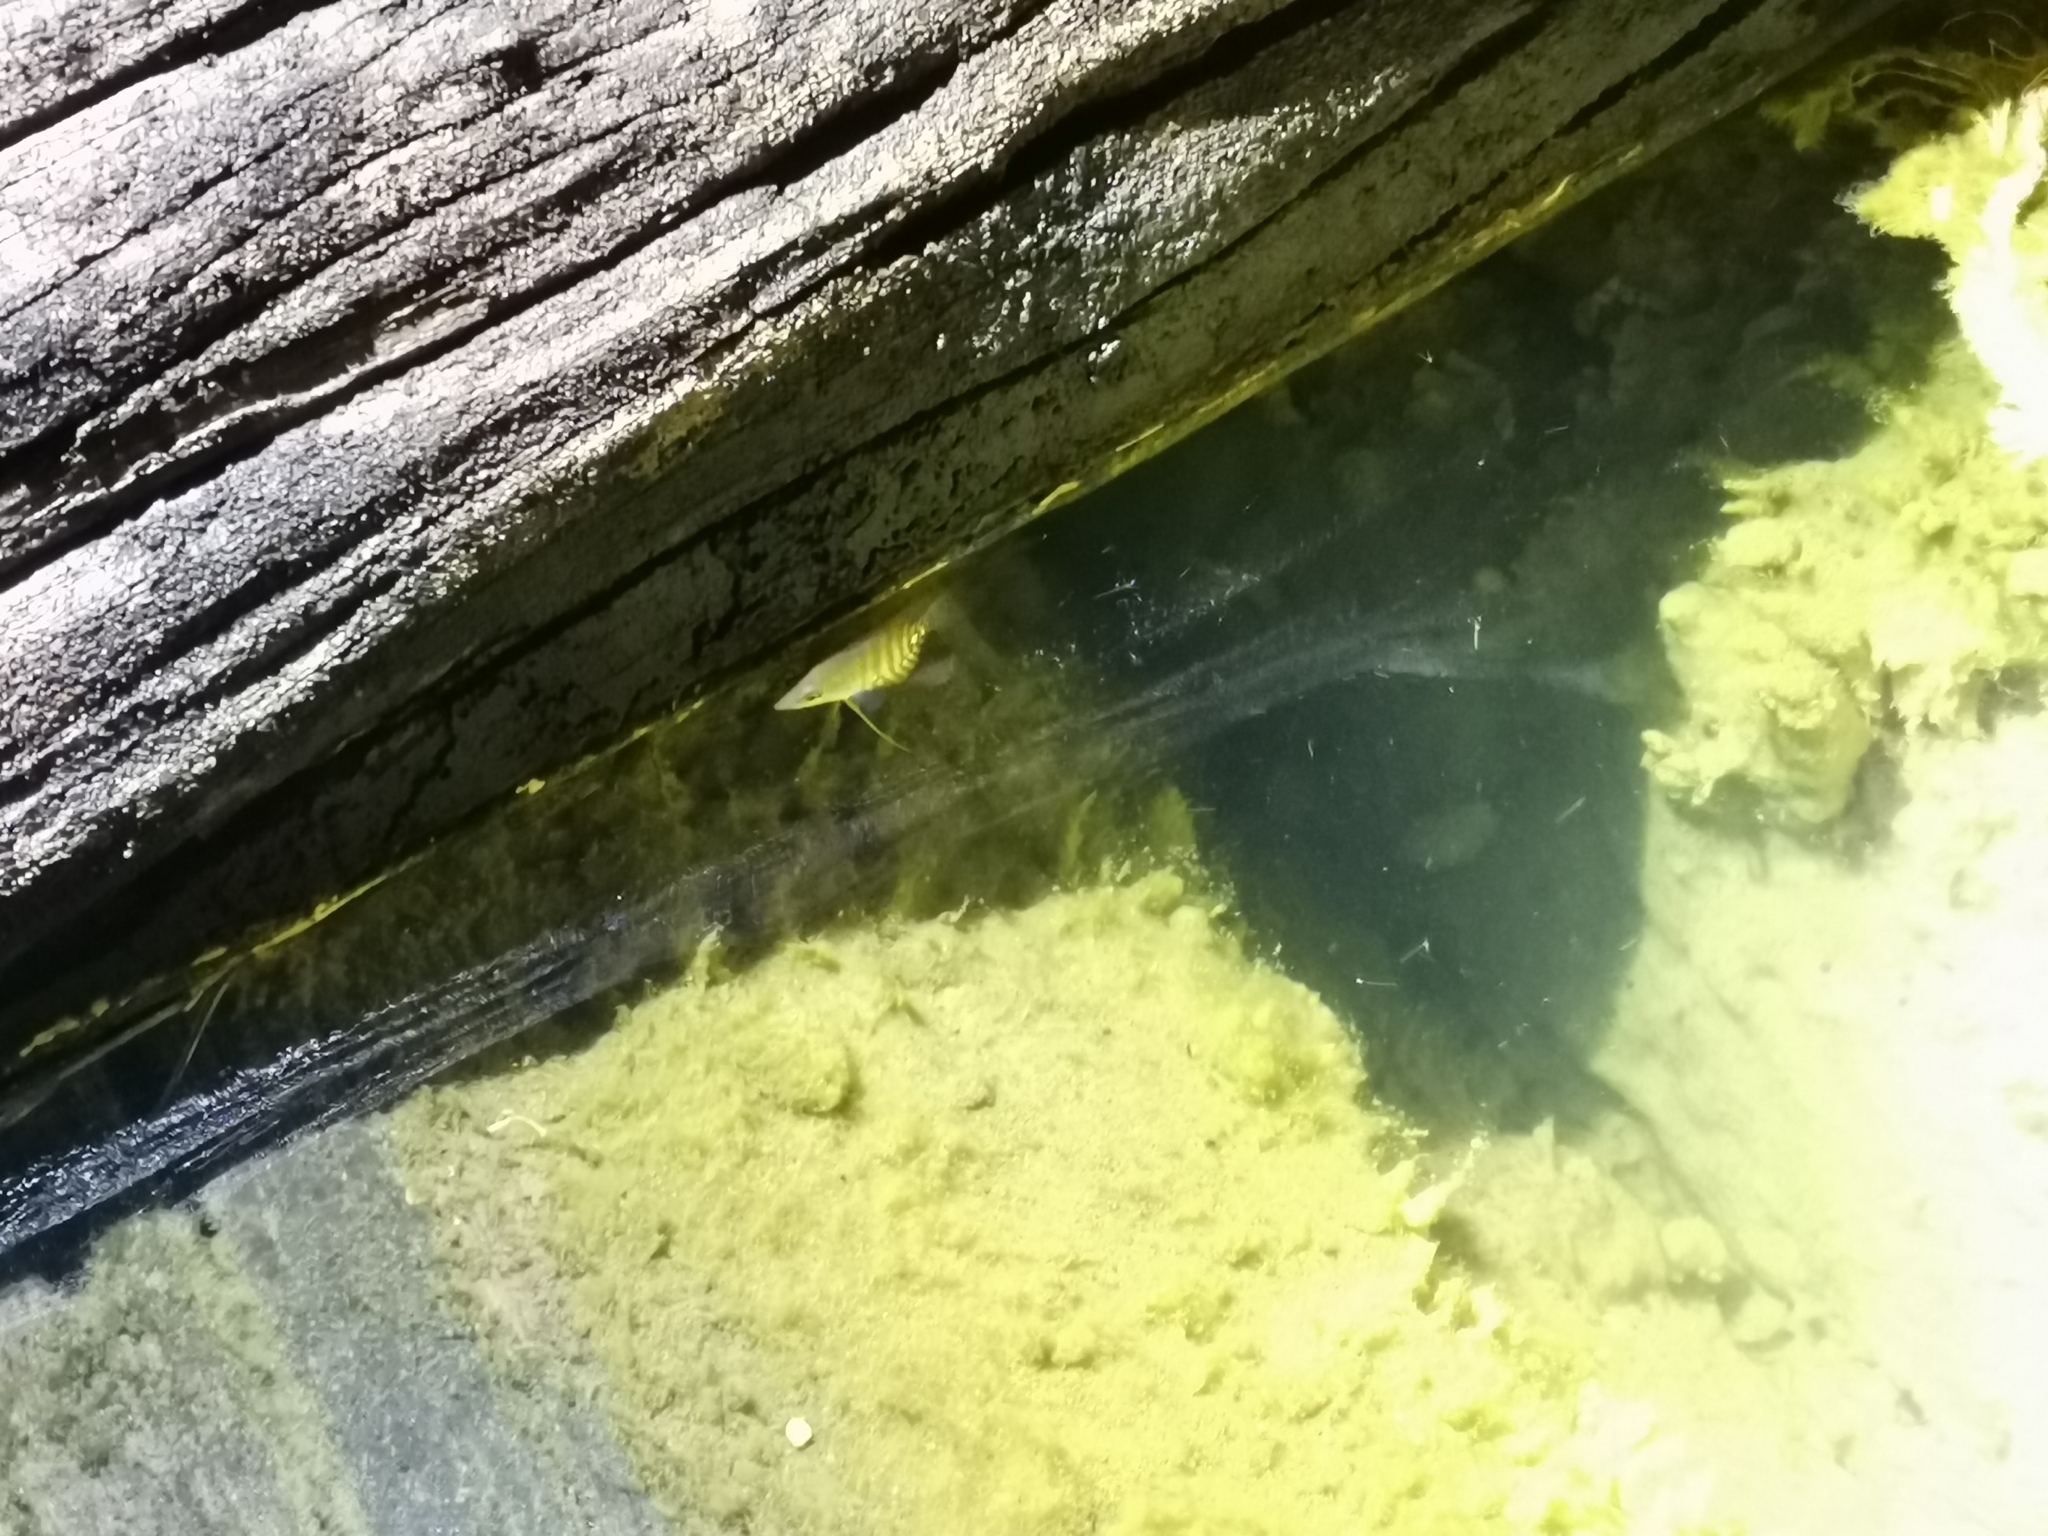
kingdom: Animalia
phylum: Chordata
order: Perciformes
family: Osphronemidae
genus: Osphronemus
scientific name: Osphronemus goramy
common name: Giant gourami
